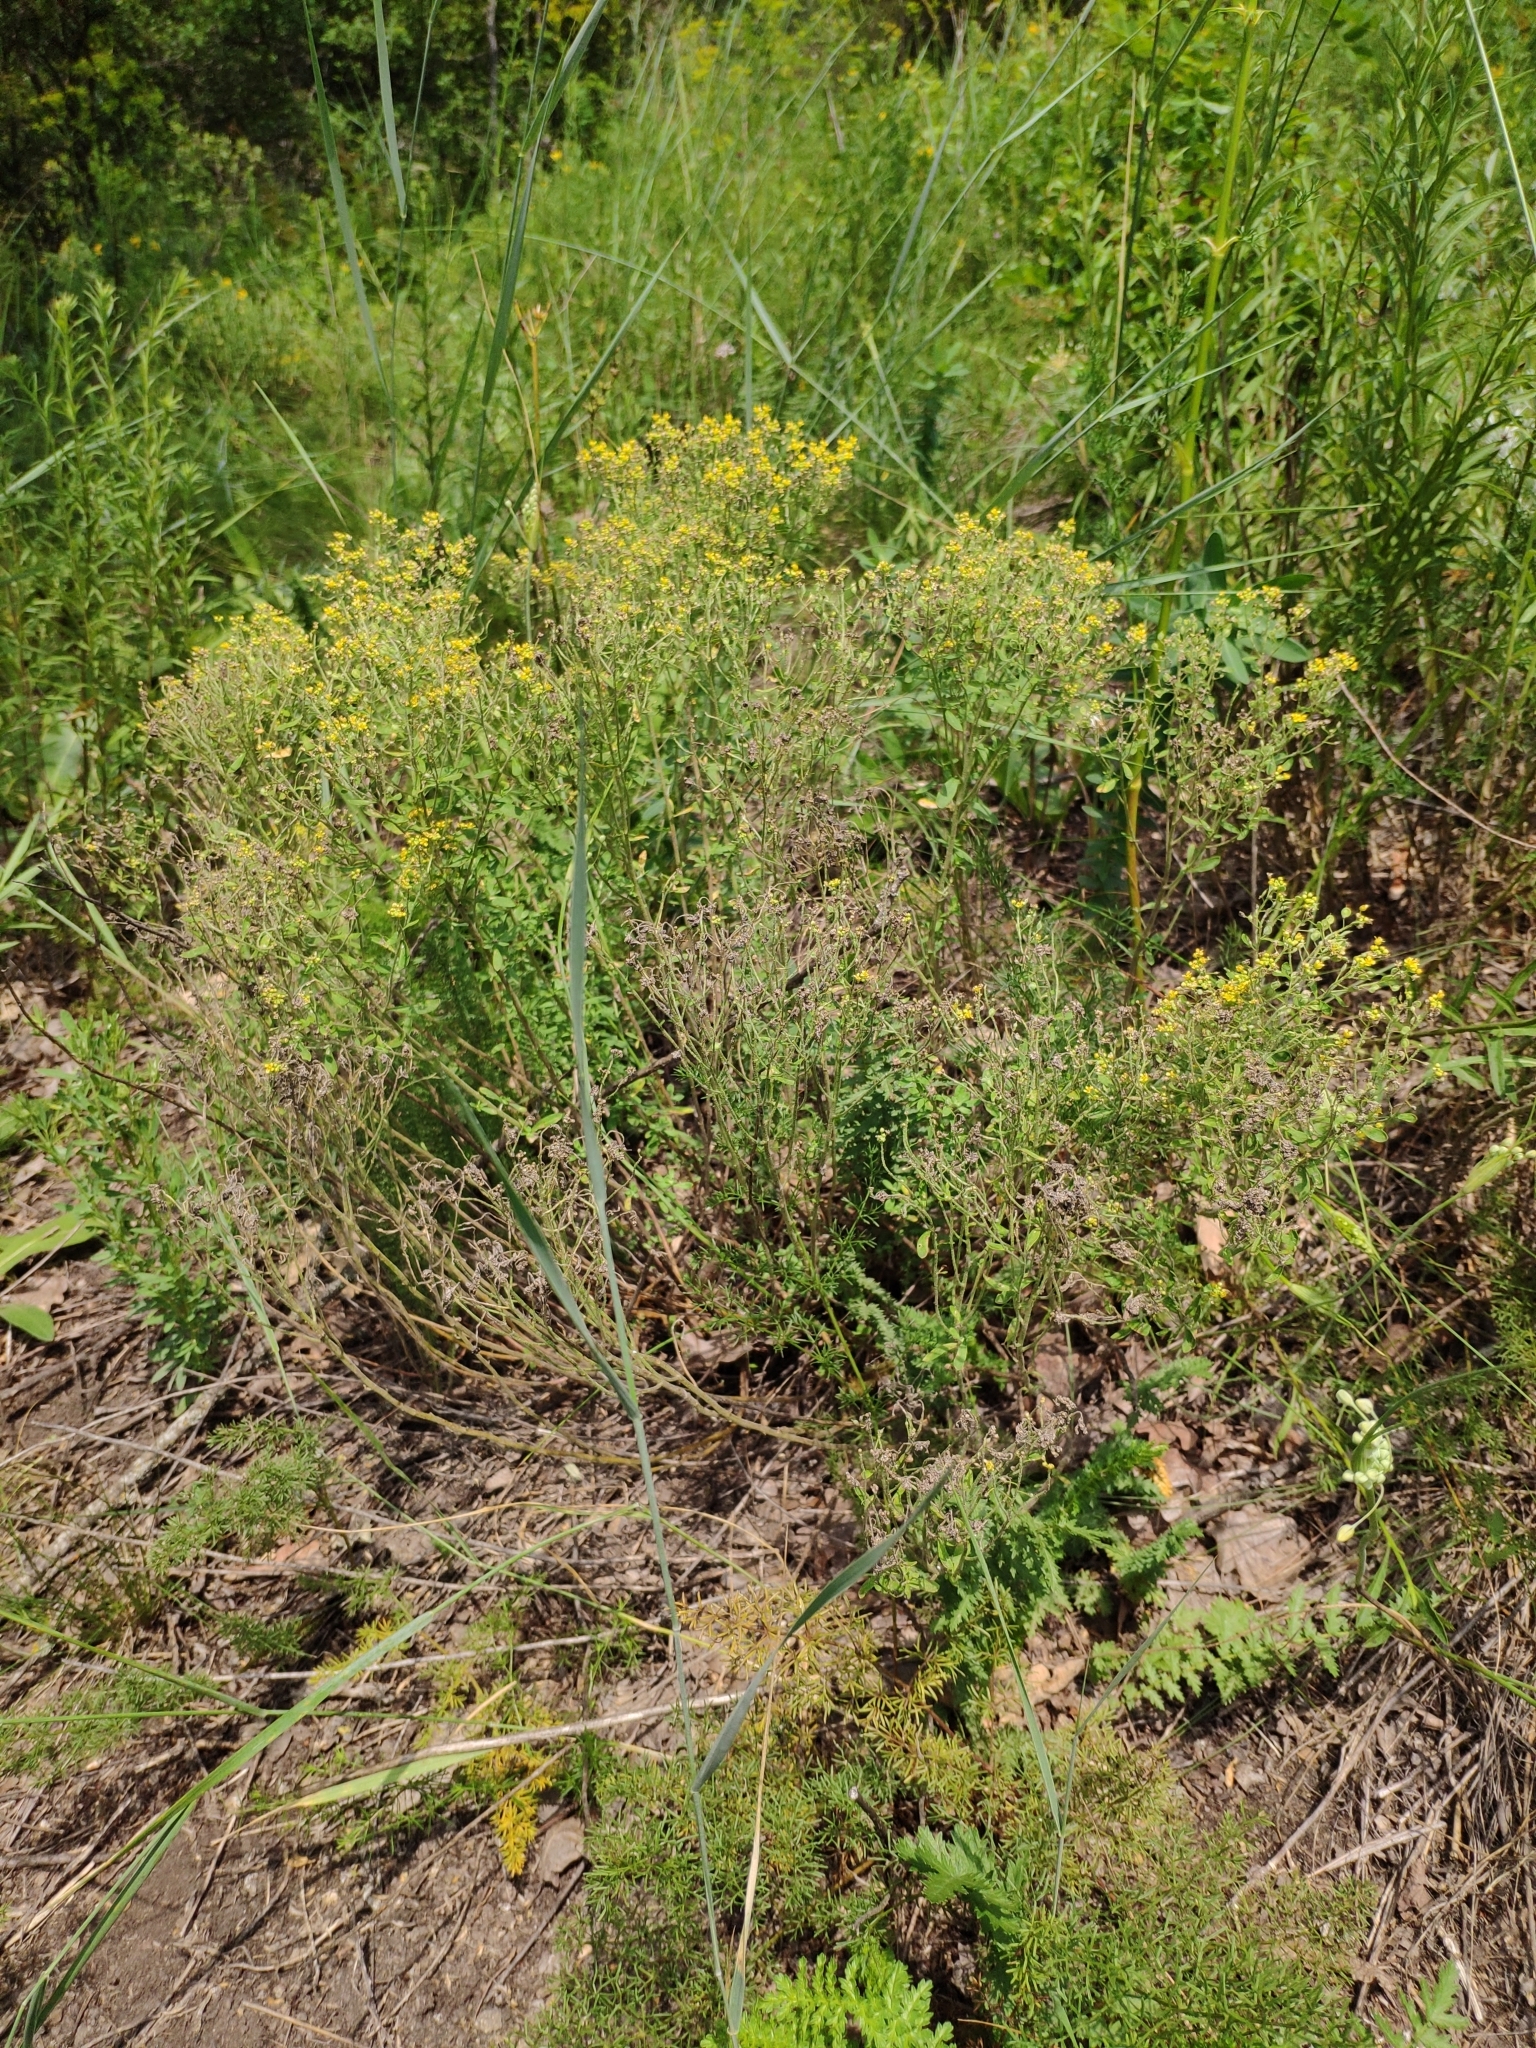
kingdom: Plantae
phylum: Tracheophyta
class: Magnoliopsida
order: Brassicales
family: Brassicaceae
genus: Odontarrhena
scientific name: Odontarrhena muralis
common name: Rock alyssum
